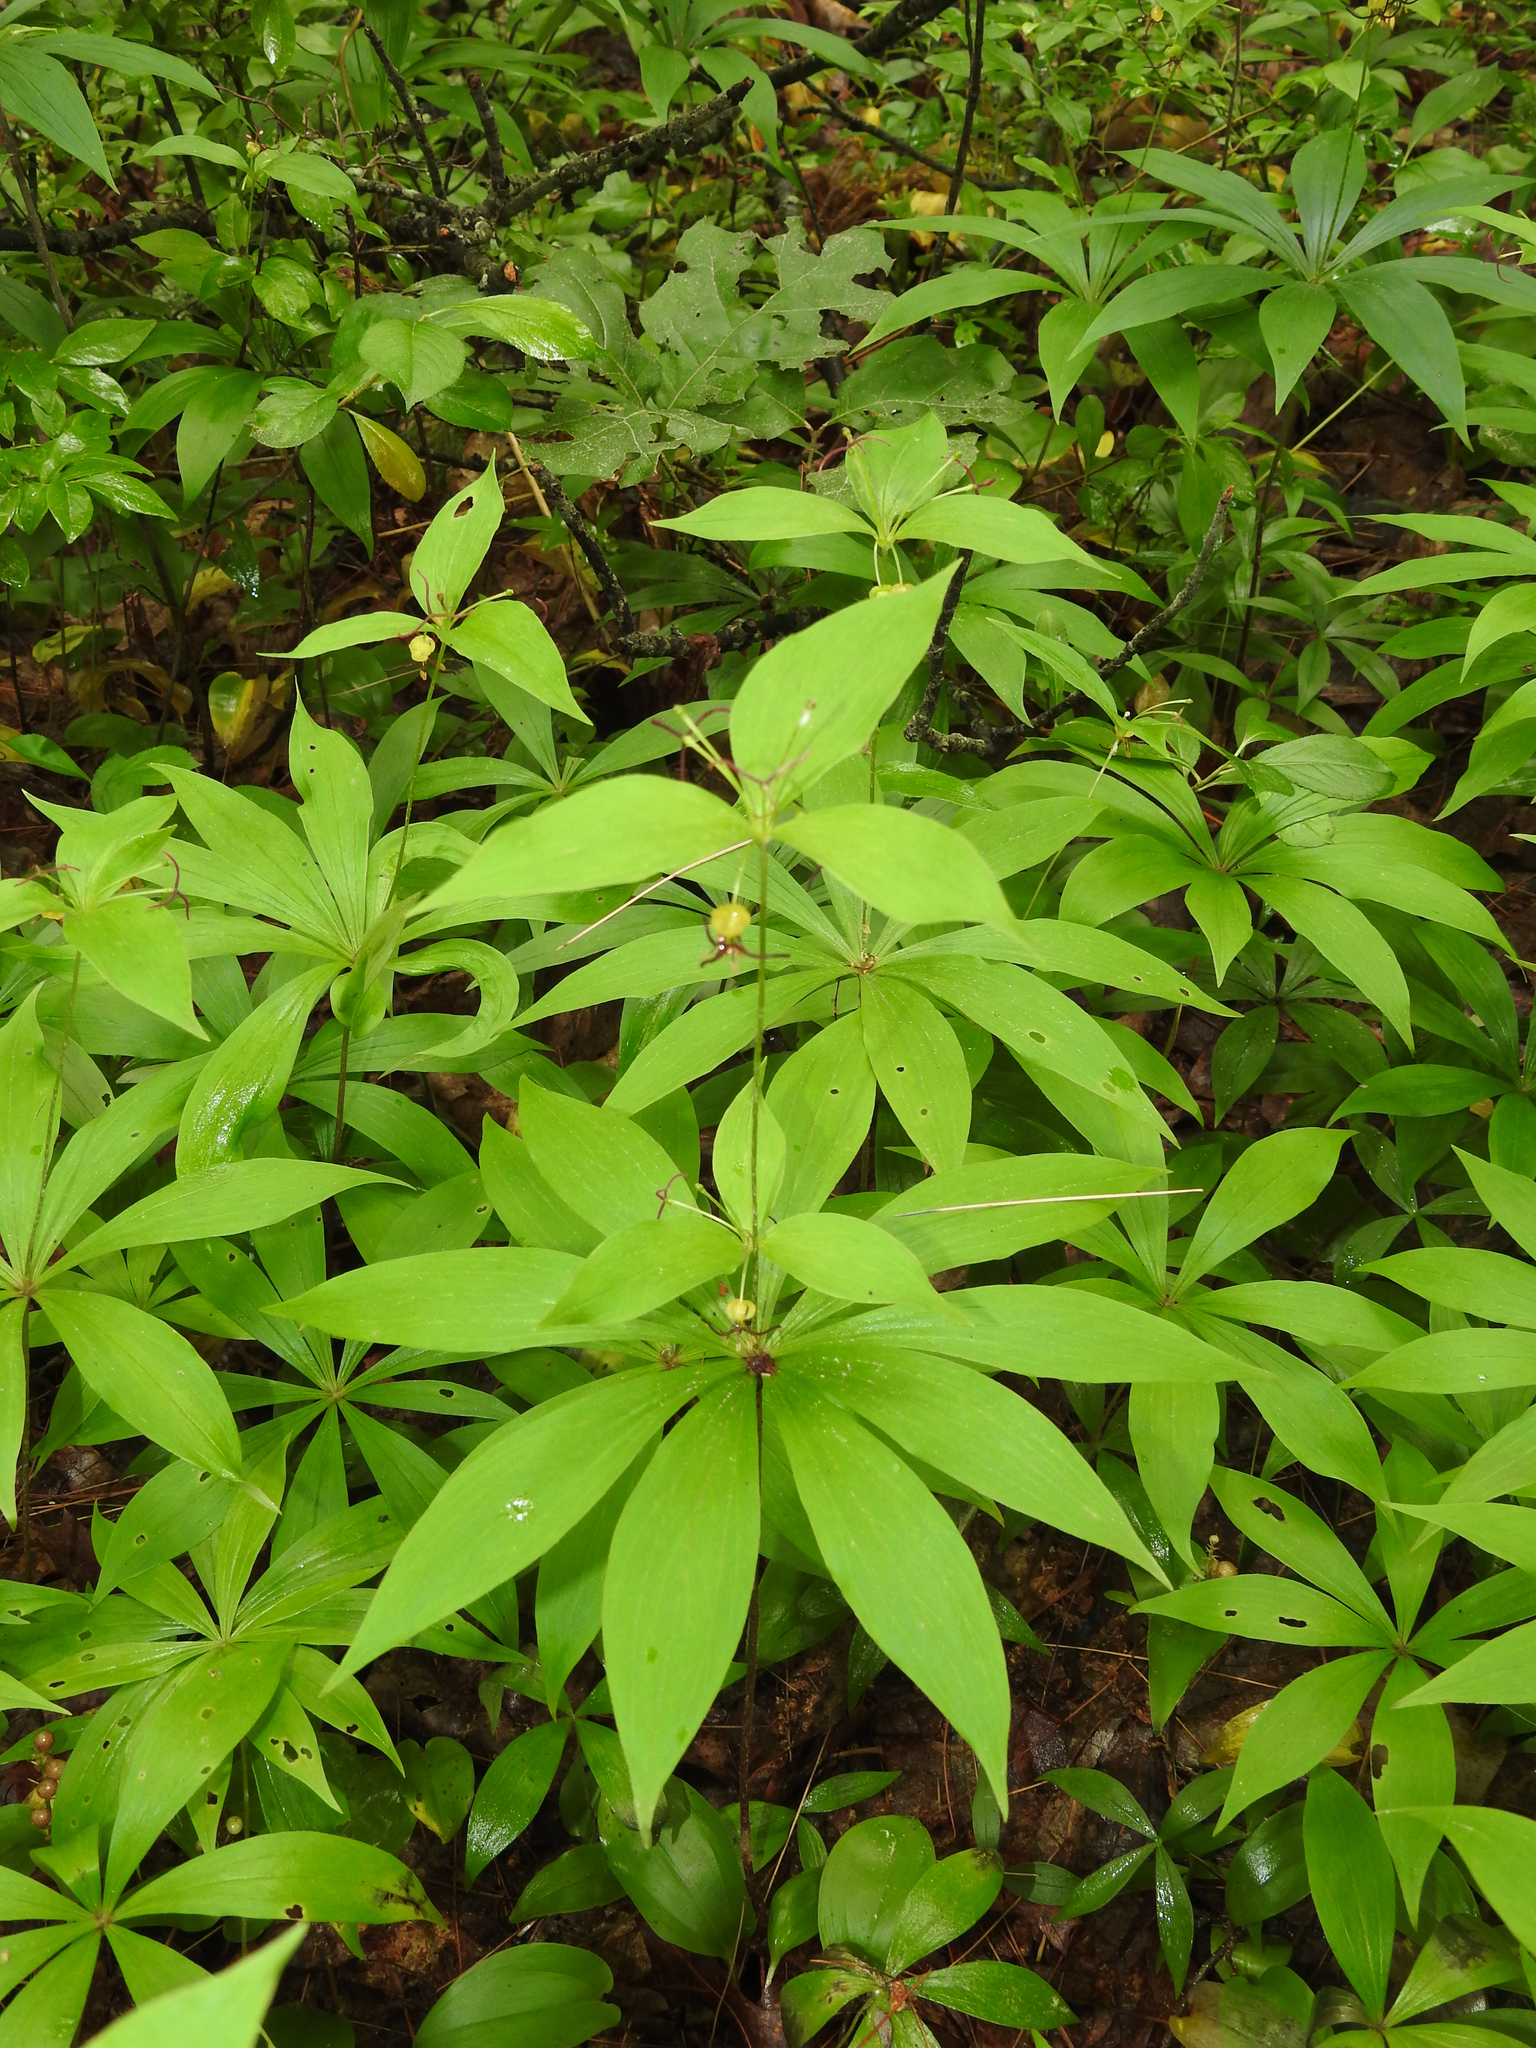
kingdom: Plantae
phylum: Tracheophyta
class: Liliopsida
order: Liliales
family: Liliaceae
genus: Medeola
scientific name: Medeola virginiana
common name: Indian cucumber-root
